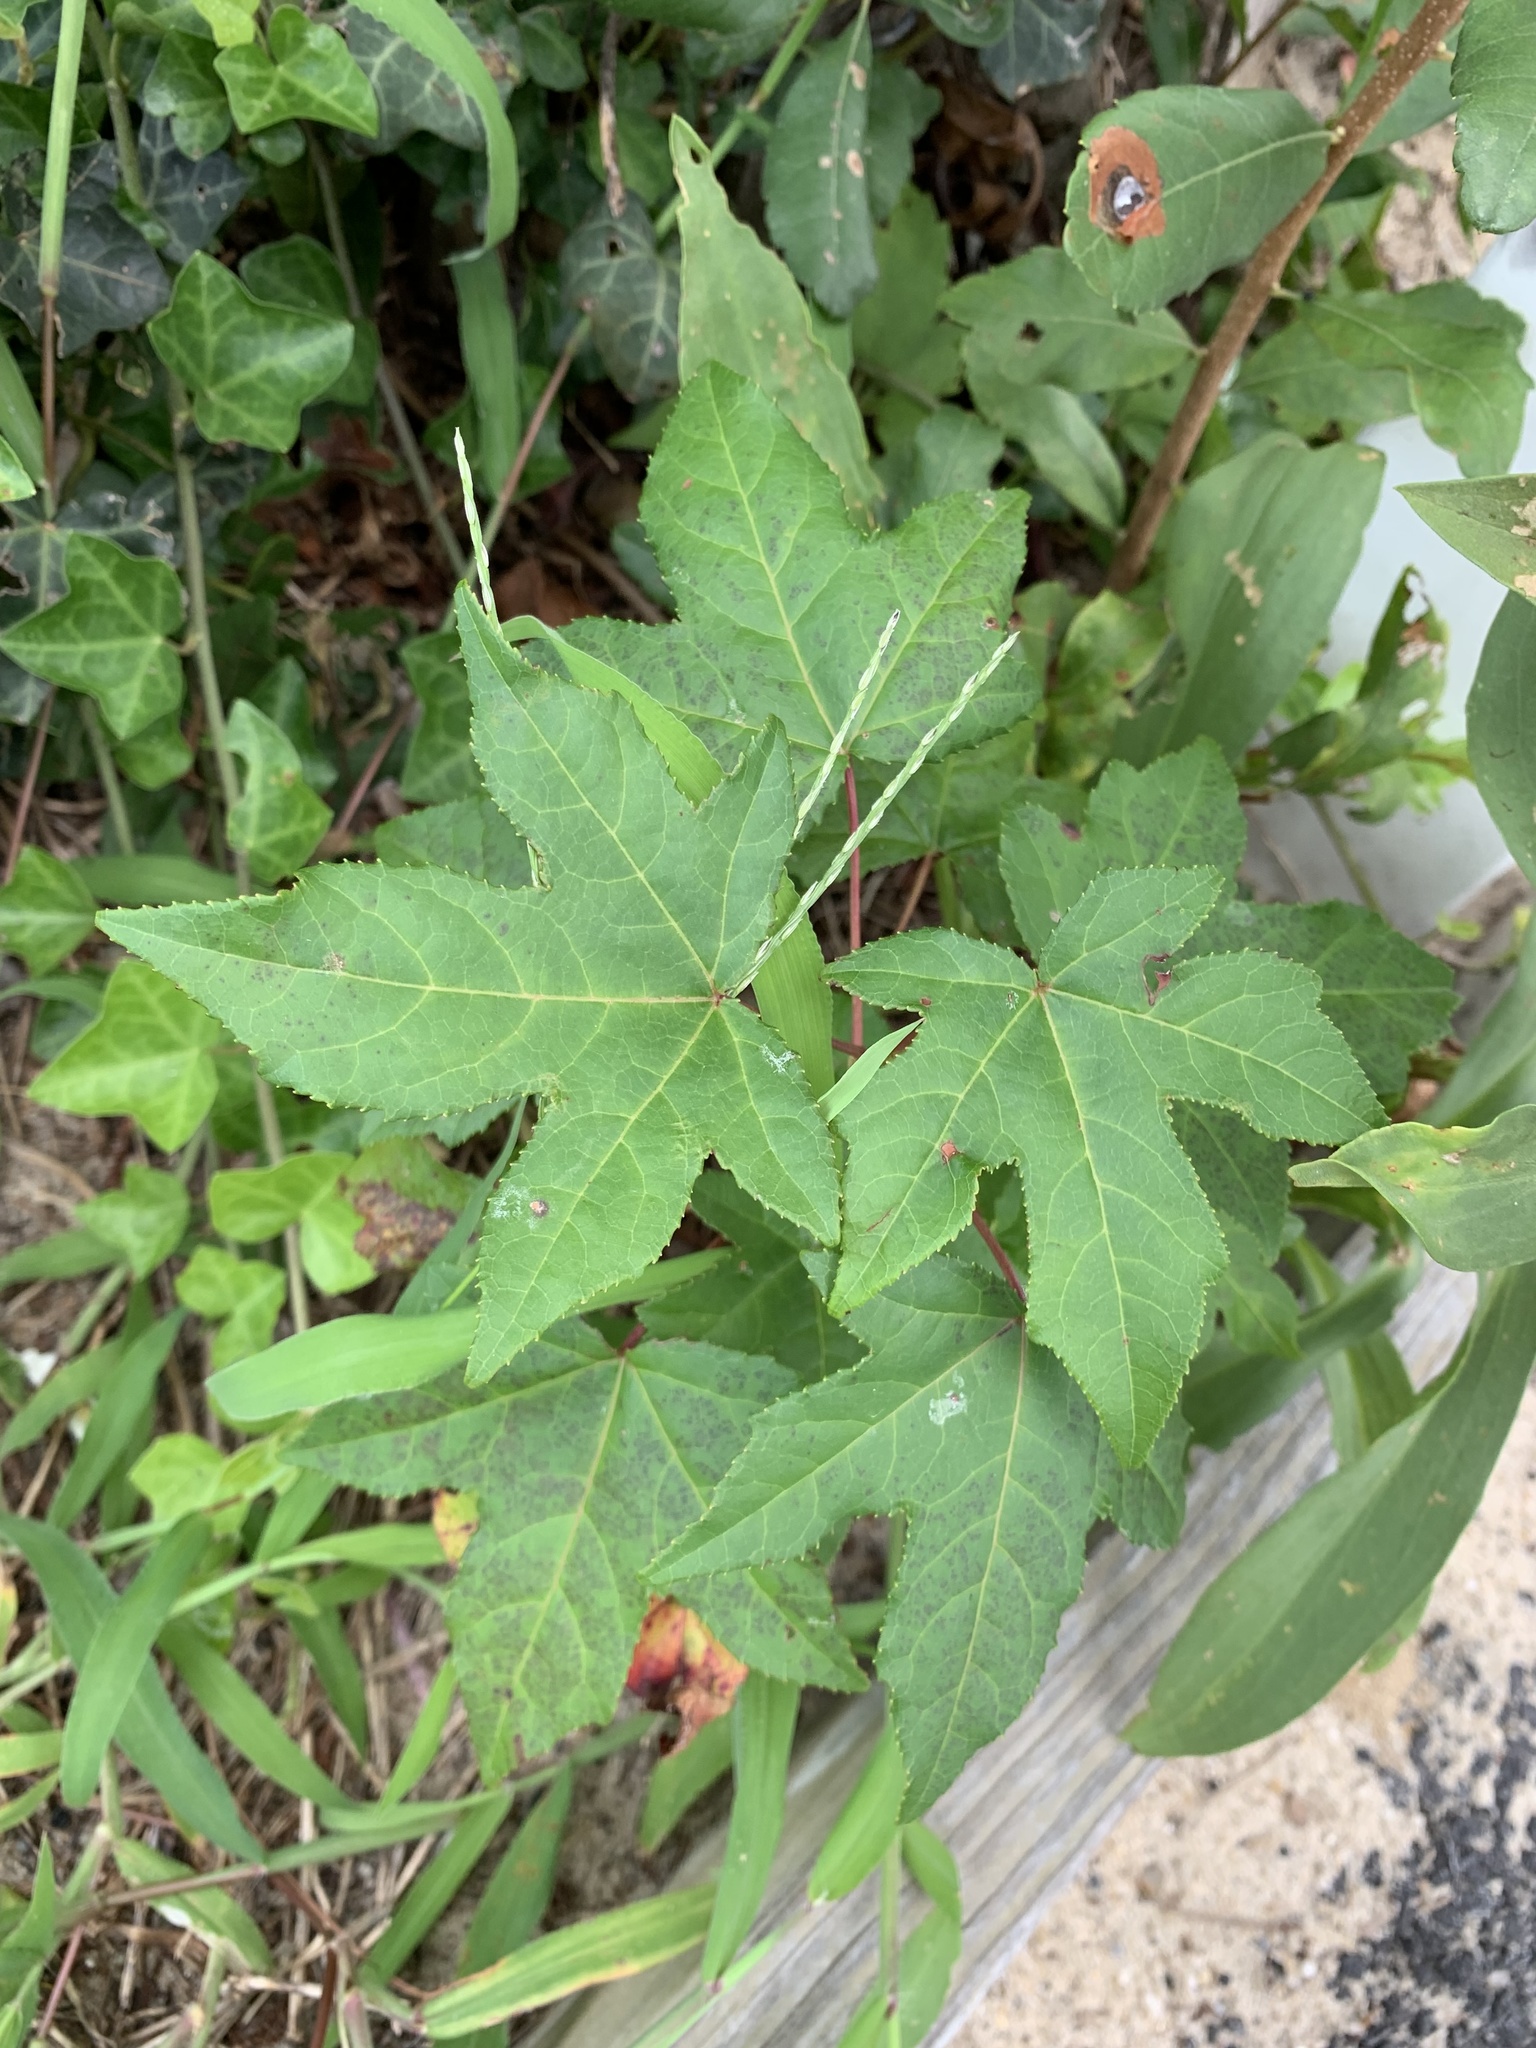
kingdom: Plantae
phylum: Tracheophyta
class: Magnoliopsida
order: Saxifragales
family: Altingiaceae
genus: Liquidambar
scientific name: Liquidambar styraciflua
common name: Sweet gum
